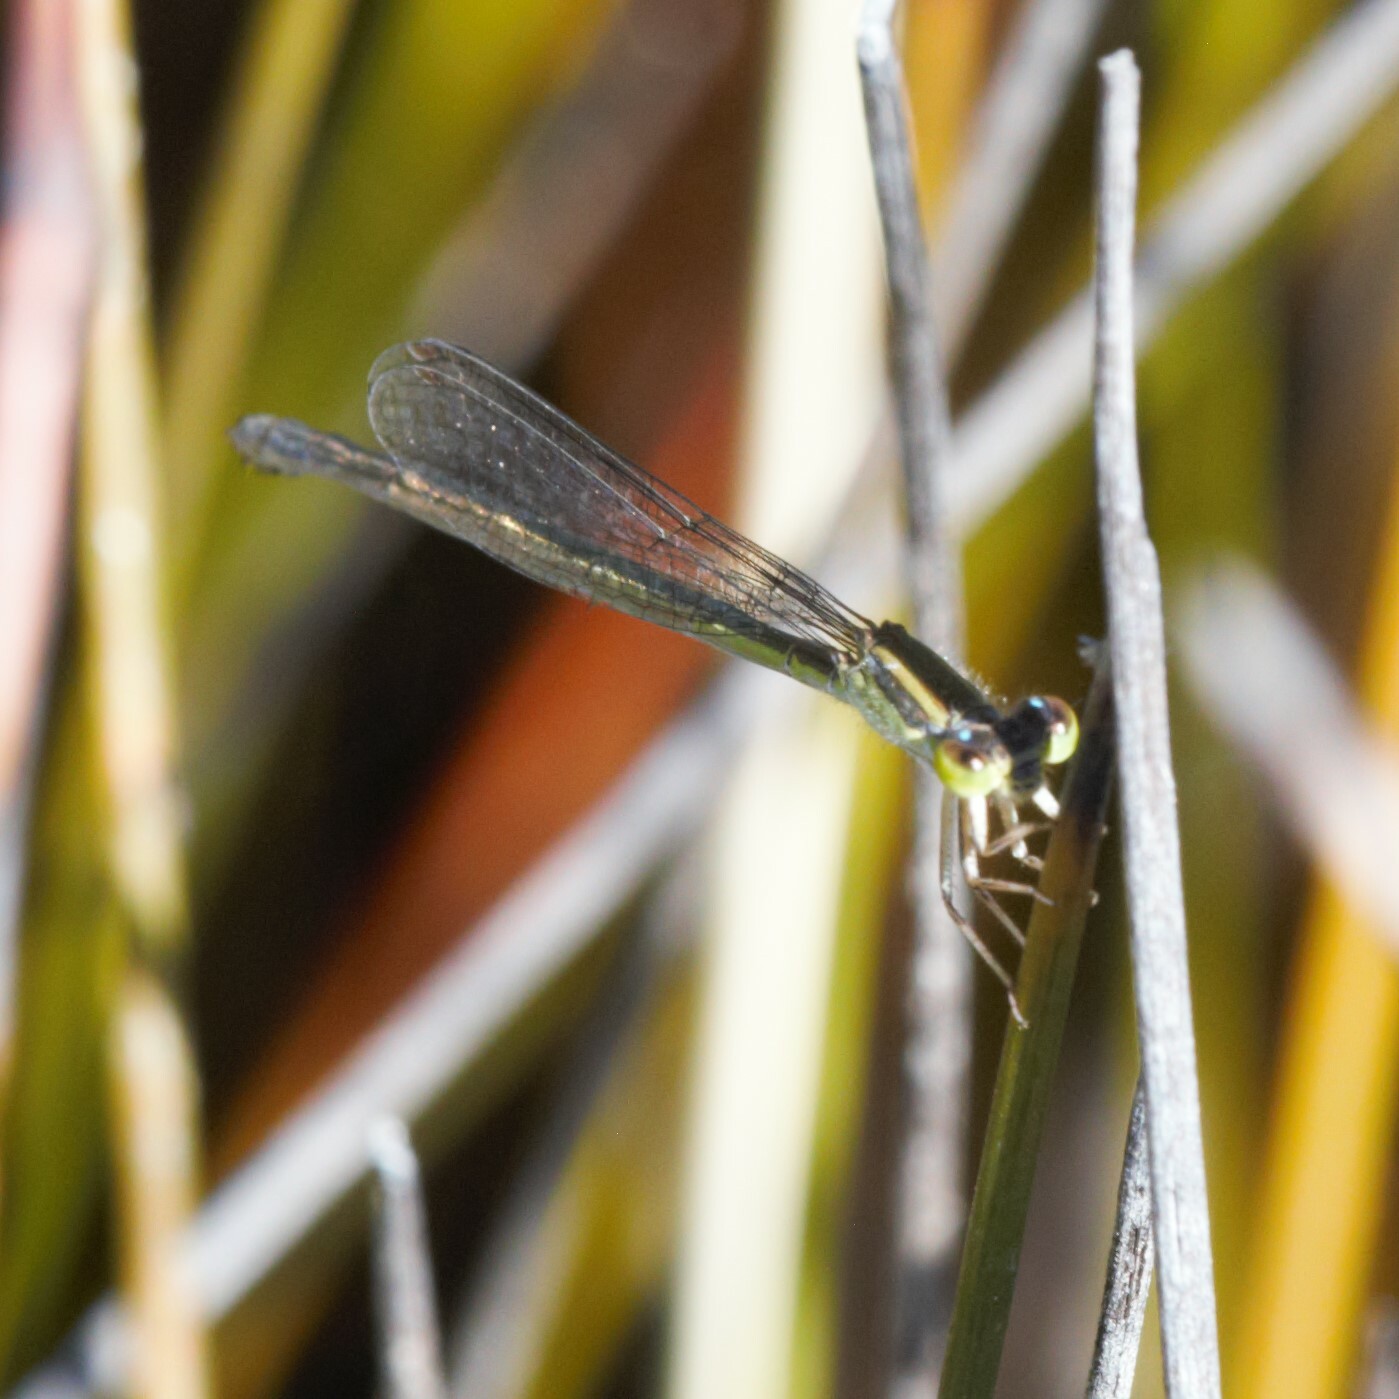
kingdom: Animalia
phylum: Arthropoda
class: Insecta
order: Odonata
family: Coenagrionidae
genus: Ischnura
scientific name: Ischnura aurora
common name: Gossamer damselfly
